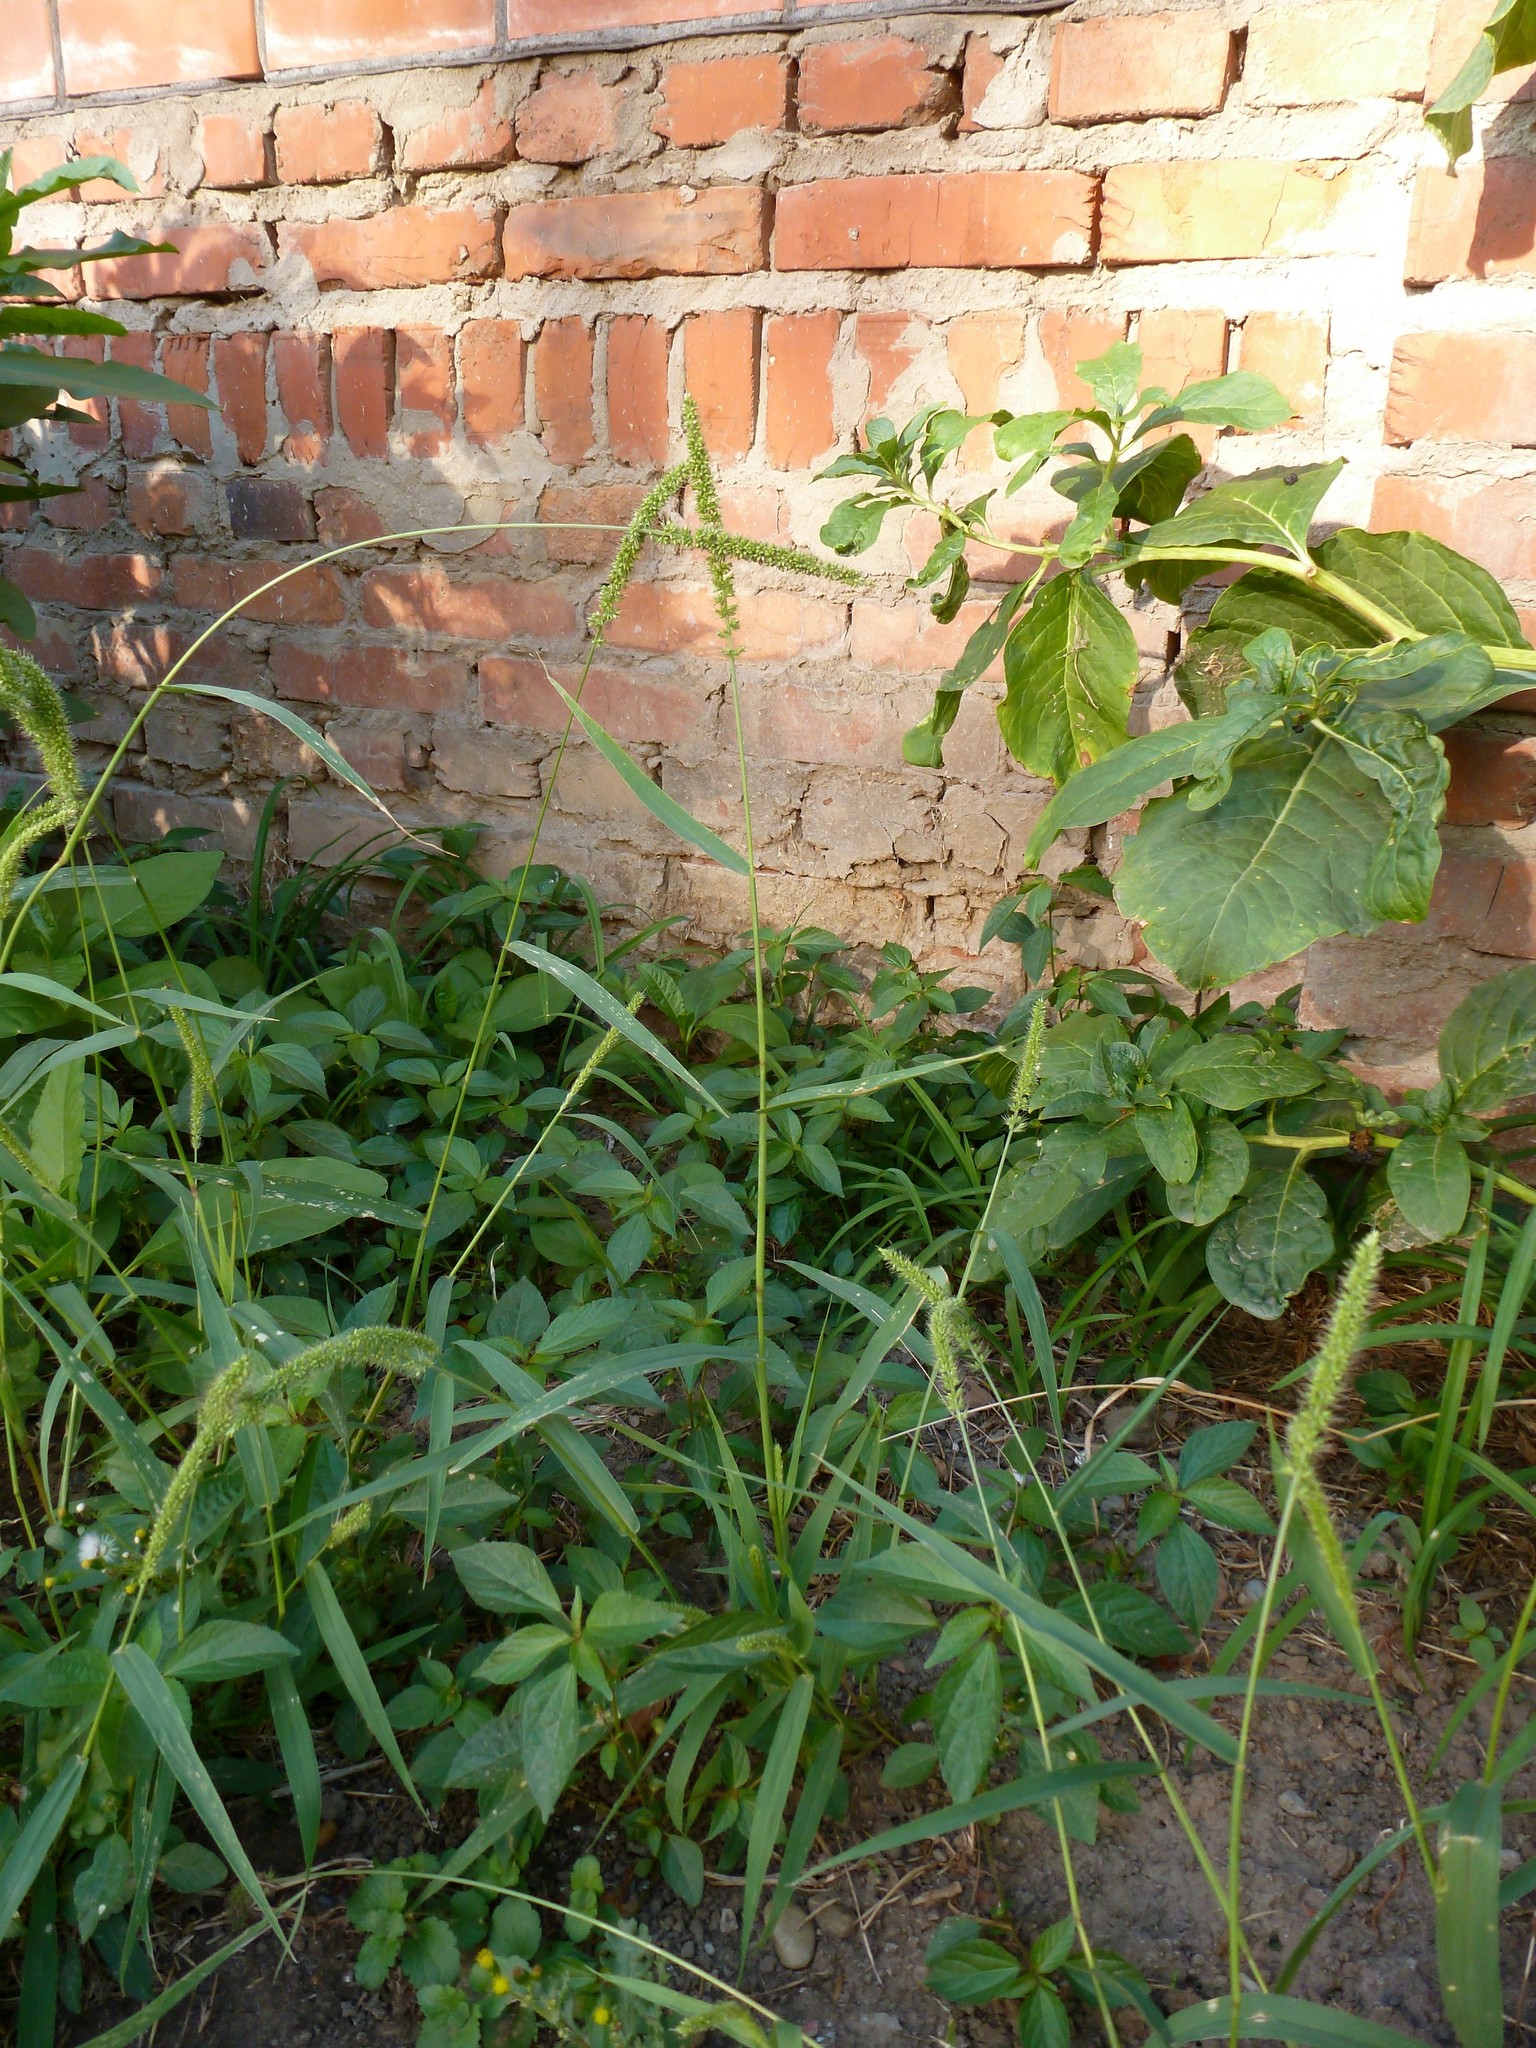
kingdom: Plantae
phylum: Tracheophyta
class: Liliopsida
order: Poales
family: Poaceae
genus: Setaria
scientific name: Setaria verticillata
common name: Hooked bristlegrass
